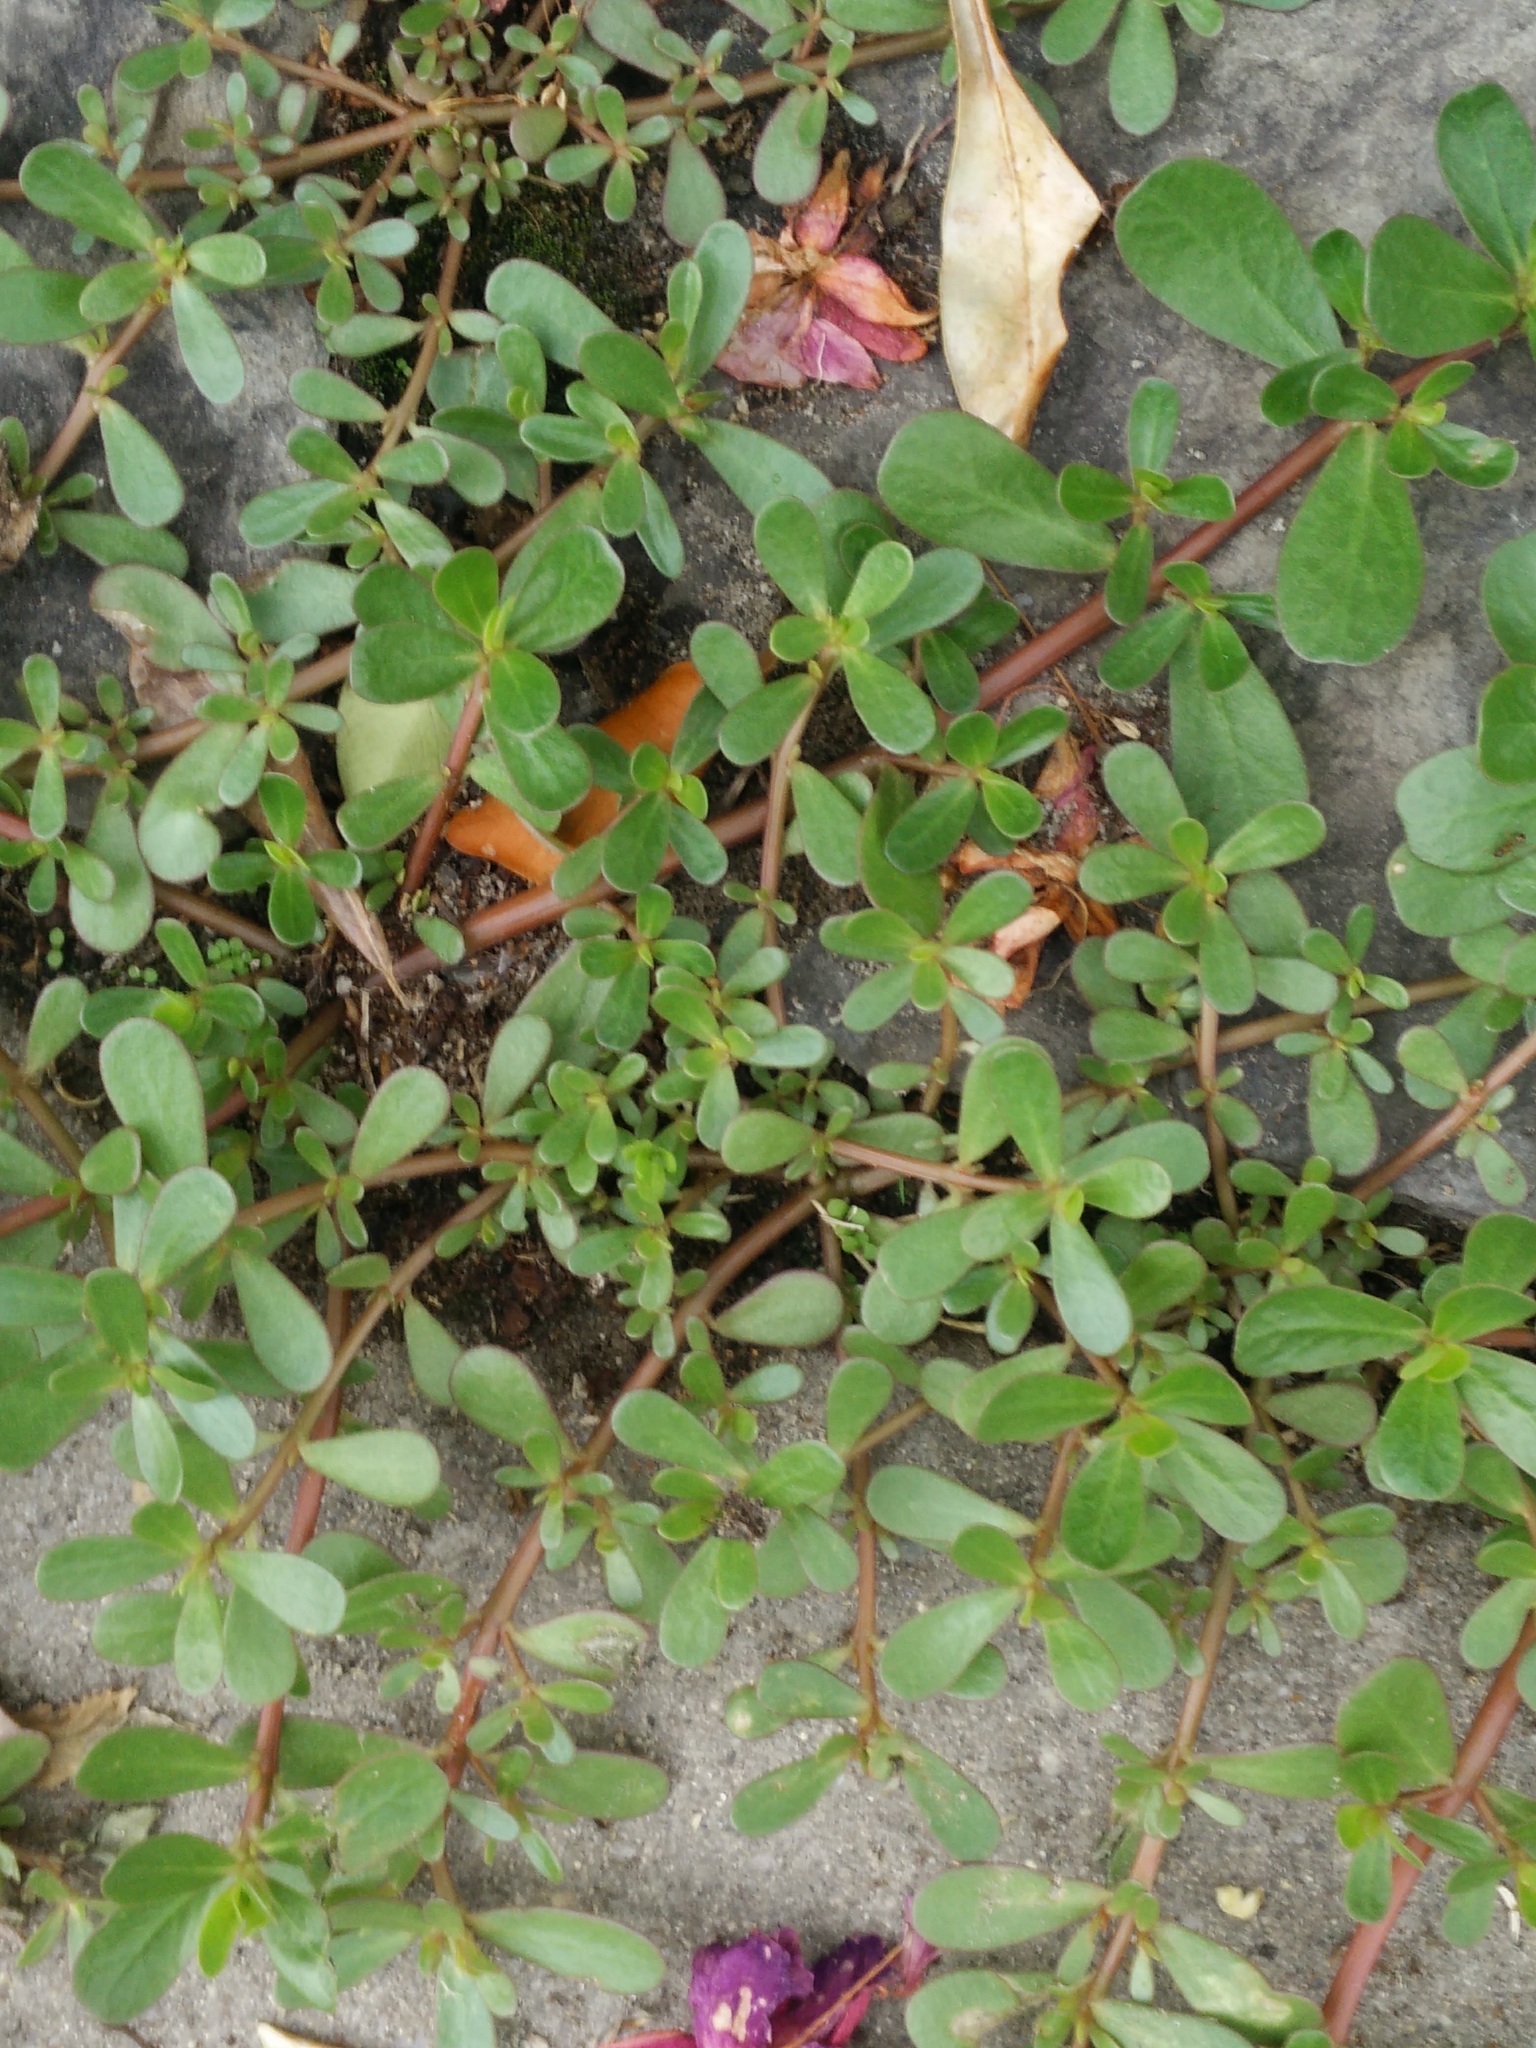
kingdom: Plantae
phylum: Tracheophyta
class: Magnoliopsida
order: Caryophyllales
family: Portulacaceae
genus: Portulaca
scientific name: Portulaca oleracea
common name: Common purslane
